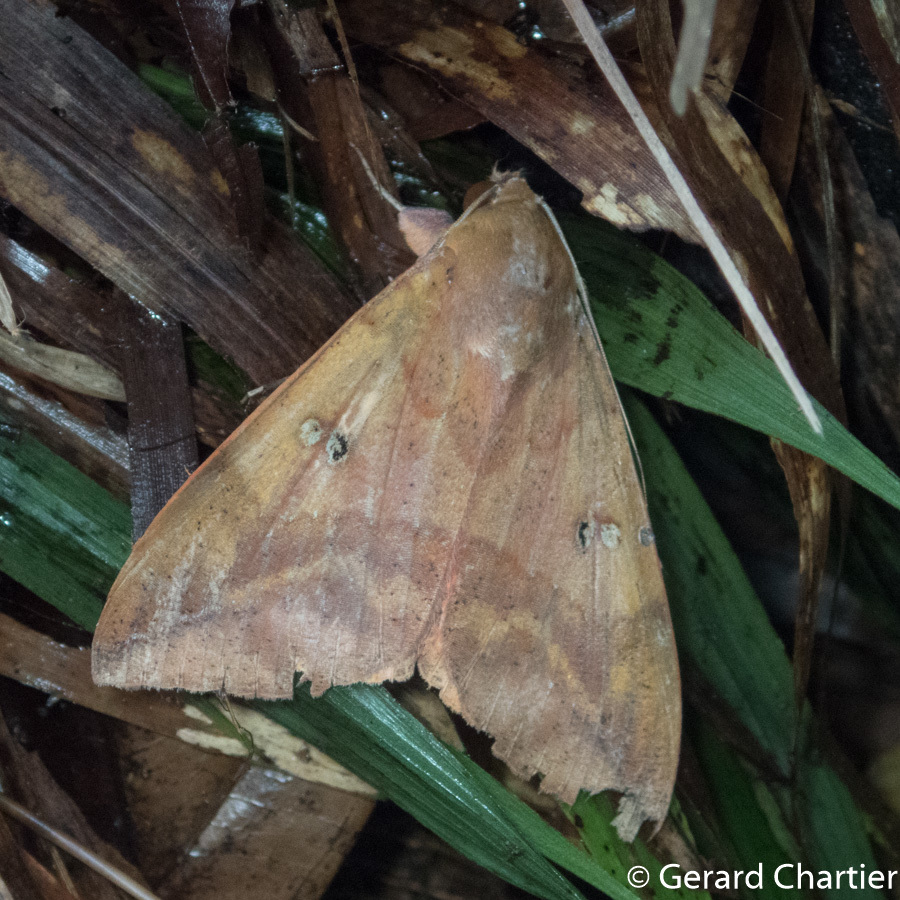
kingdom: Animalia
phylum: Arthropoda
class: Insecta
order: Lepidoptera
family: Erebidae
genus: Thyas
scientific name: Thyas honesta
